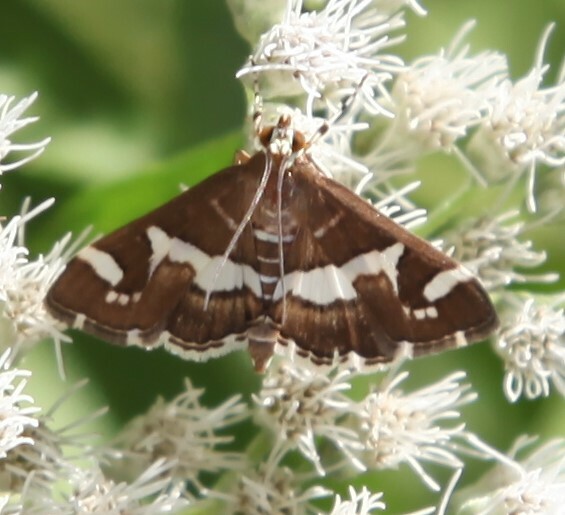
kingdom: Animalia
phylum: Arthropoda
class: Insecta
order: Lepidoptera
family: Crambidae
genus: Spoladea
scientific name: Spoladea recurvalis
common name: Beet webworm moth
